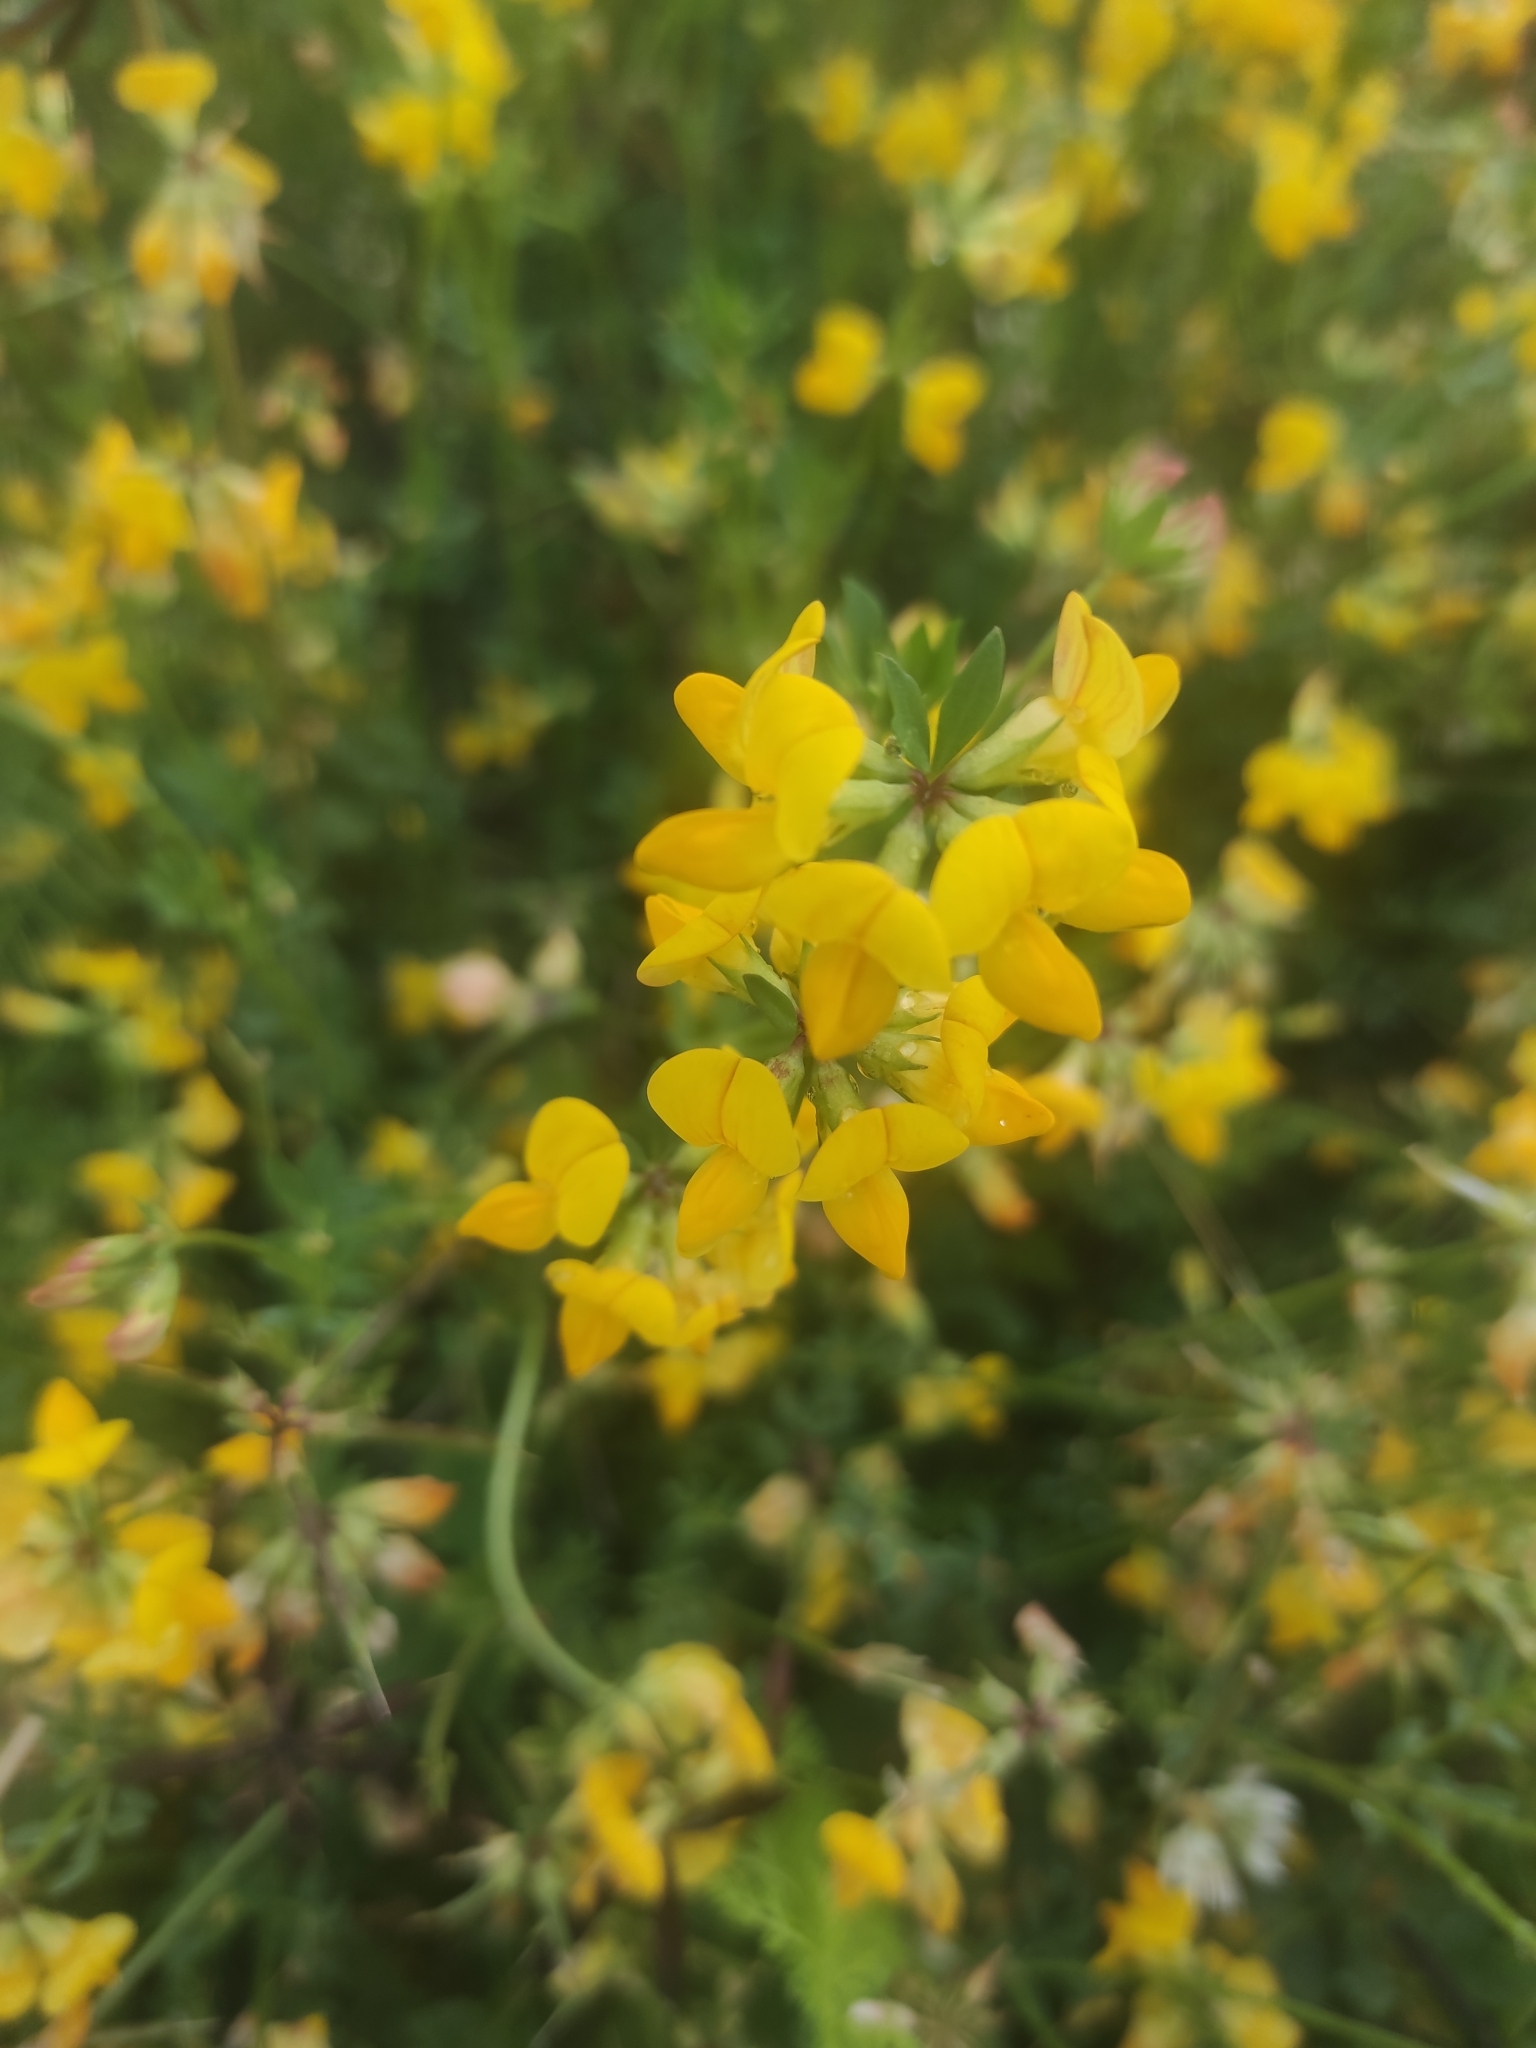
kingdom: Plantae
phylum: Tracheophyta
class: Magnoliopsida
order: Fabales
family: Fabaceae
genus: Lotus
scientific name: Lotus corniculatus
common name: Common bird's-foot-trefoil
